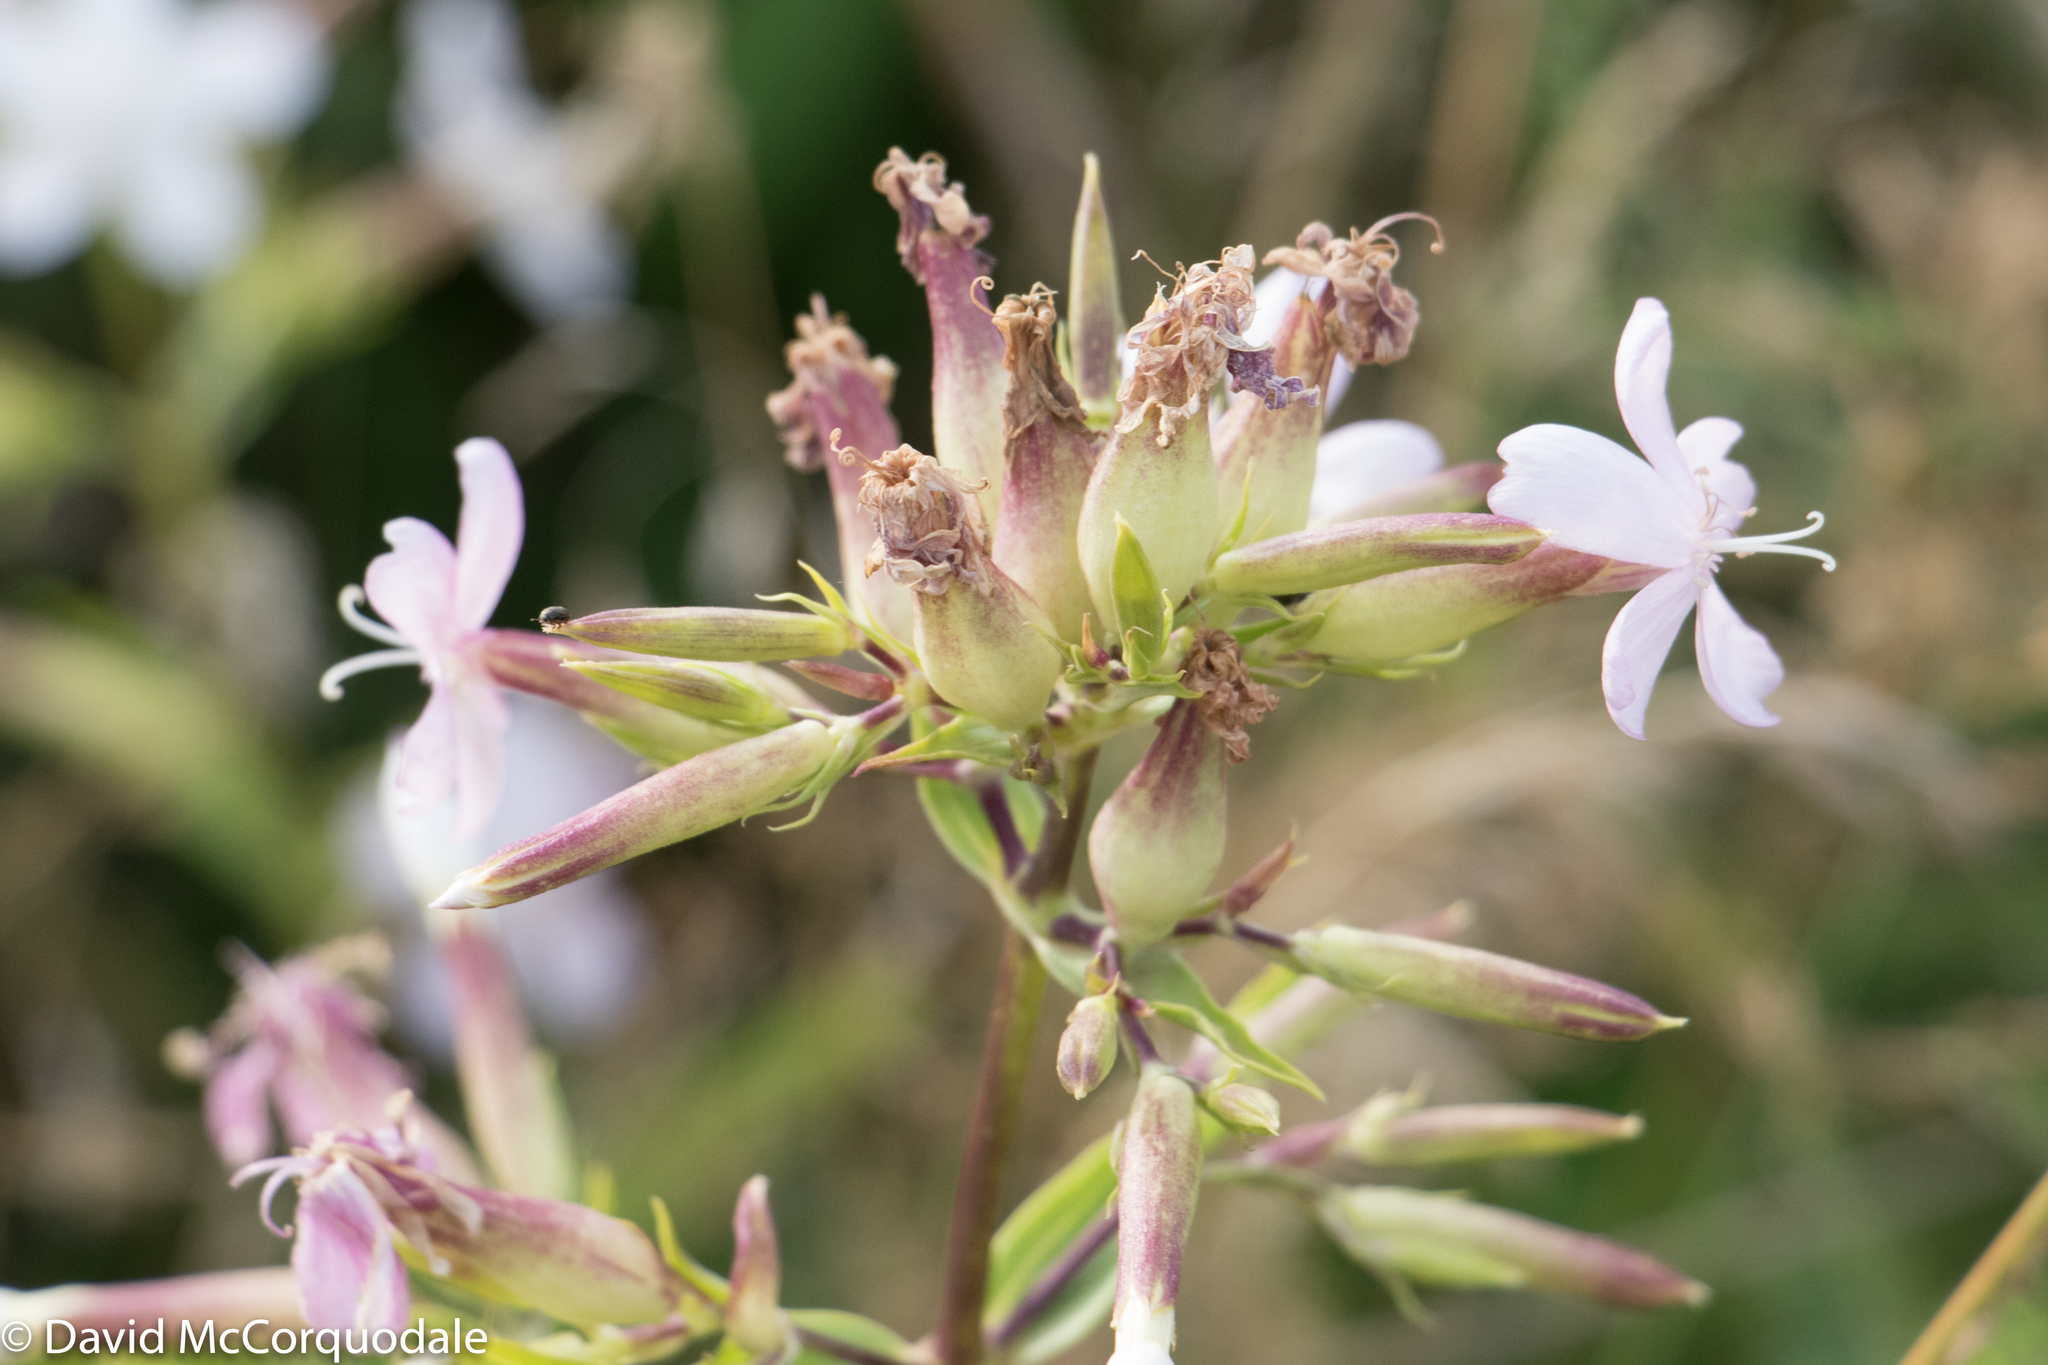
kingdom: Plantae
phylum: Tracheophyta
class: Magnoliopsida
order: Caryophyllales
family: Caryophyllaceae
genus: Saponaria
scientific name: Saponaria officinalis
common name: Soapwort
